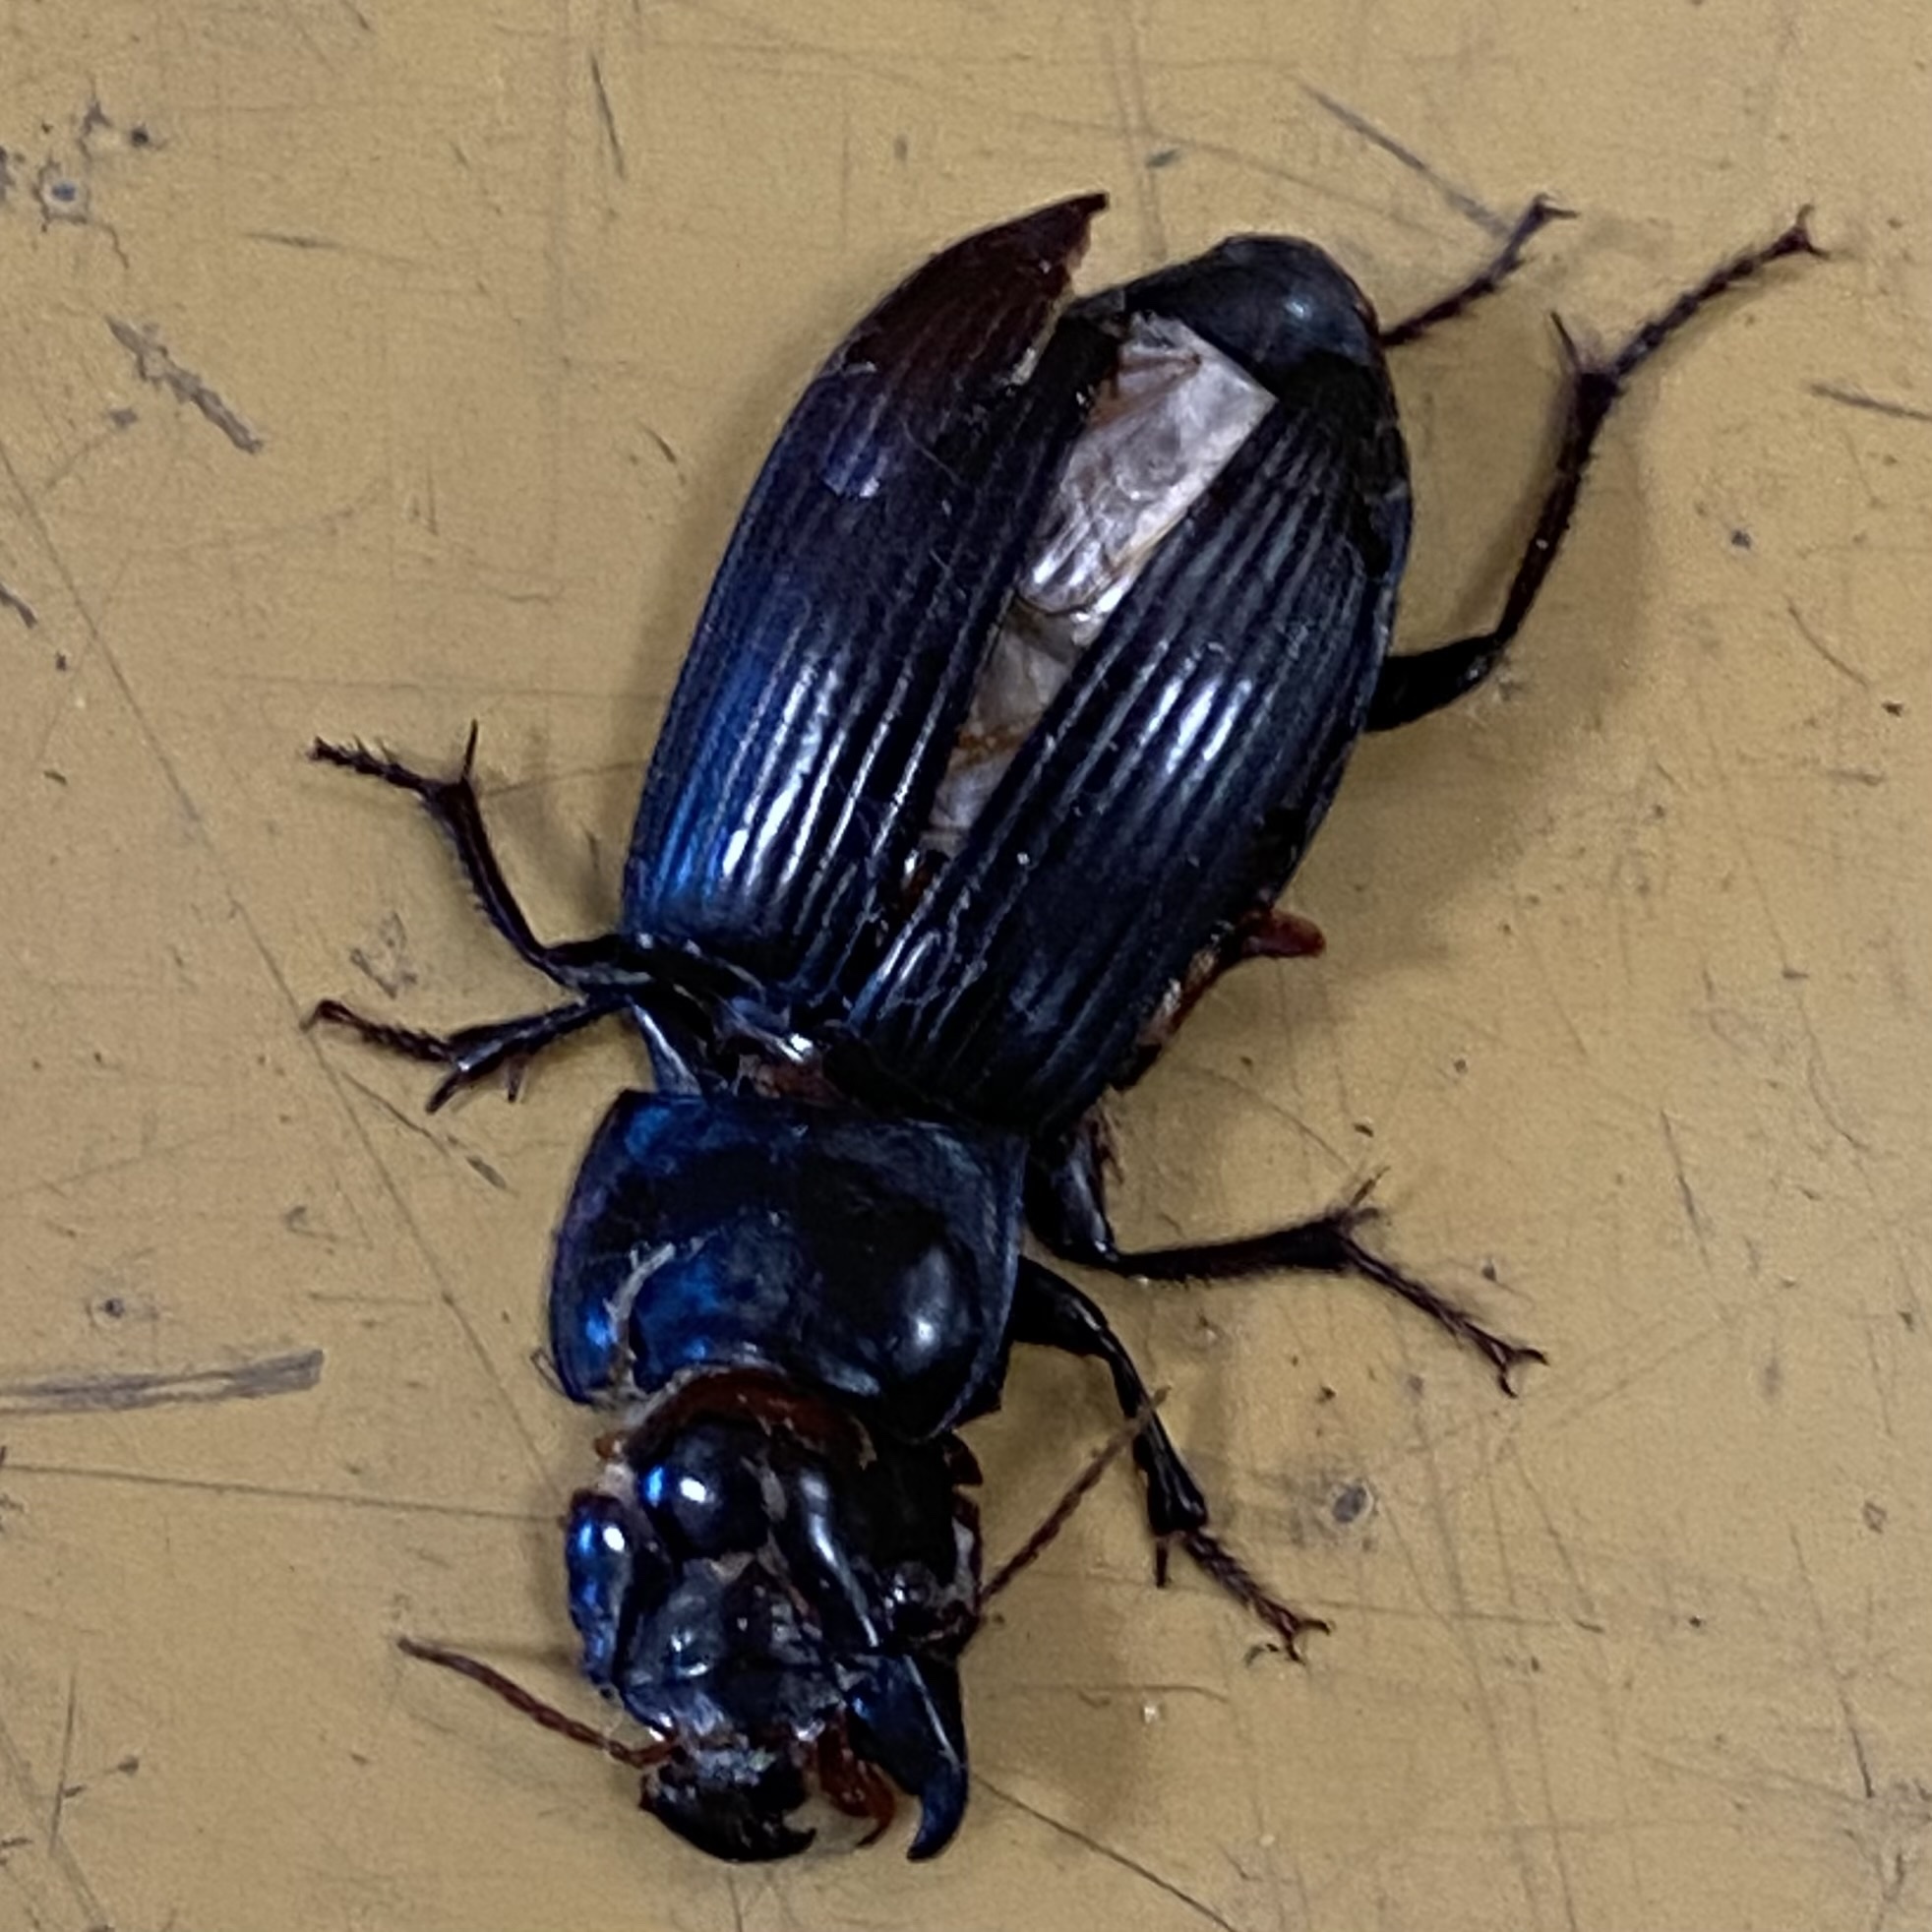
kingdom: Animalia
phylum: Arthropoda
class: Insecta
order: Coleoptera
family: Carabidae
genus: Harpalus
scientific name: Harpalus
